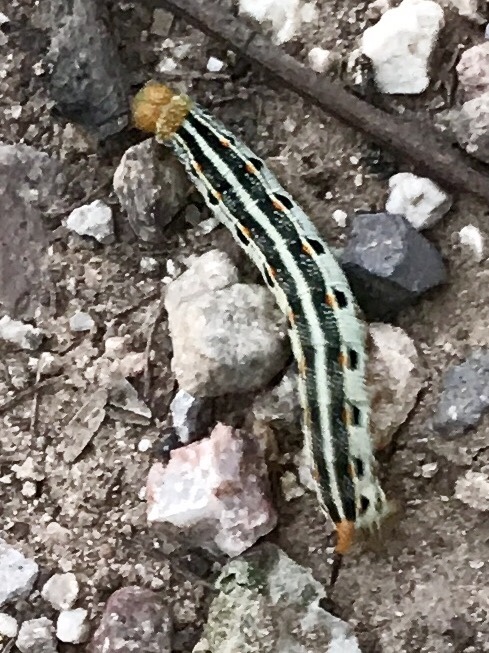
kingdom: Animalia
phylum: Arthropoda
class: Insecta
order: Lepidoptera
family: Sphingidae
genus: Hyles
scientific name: Hyles lineata
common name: White-lined sphinx
